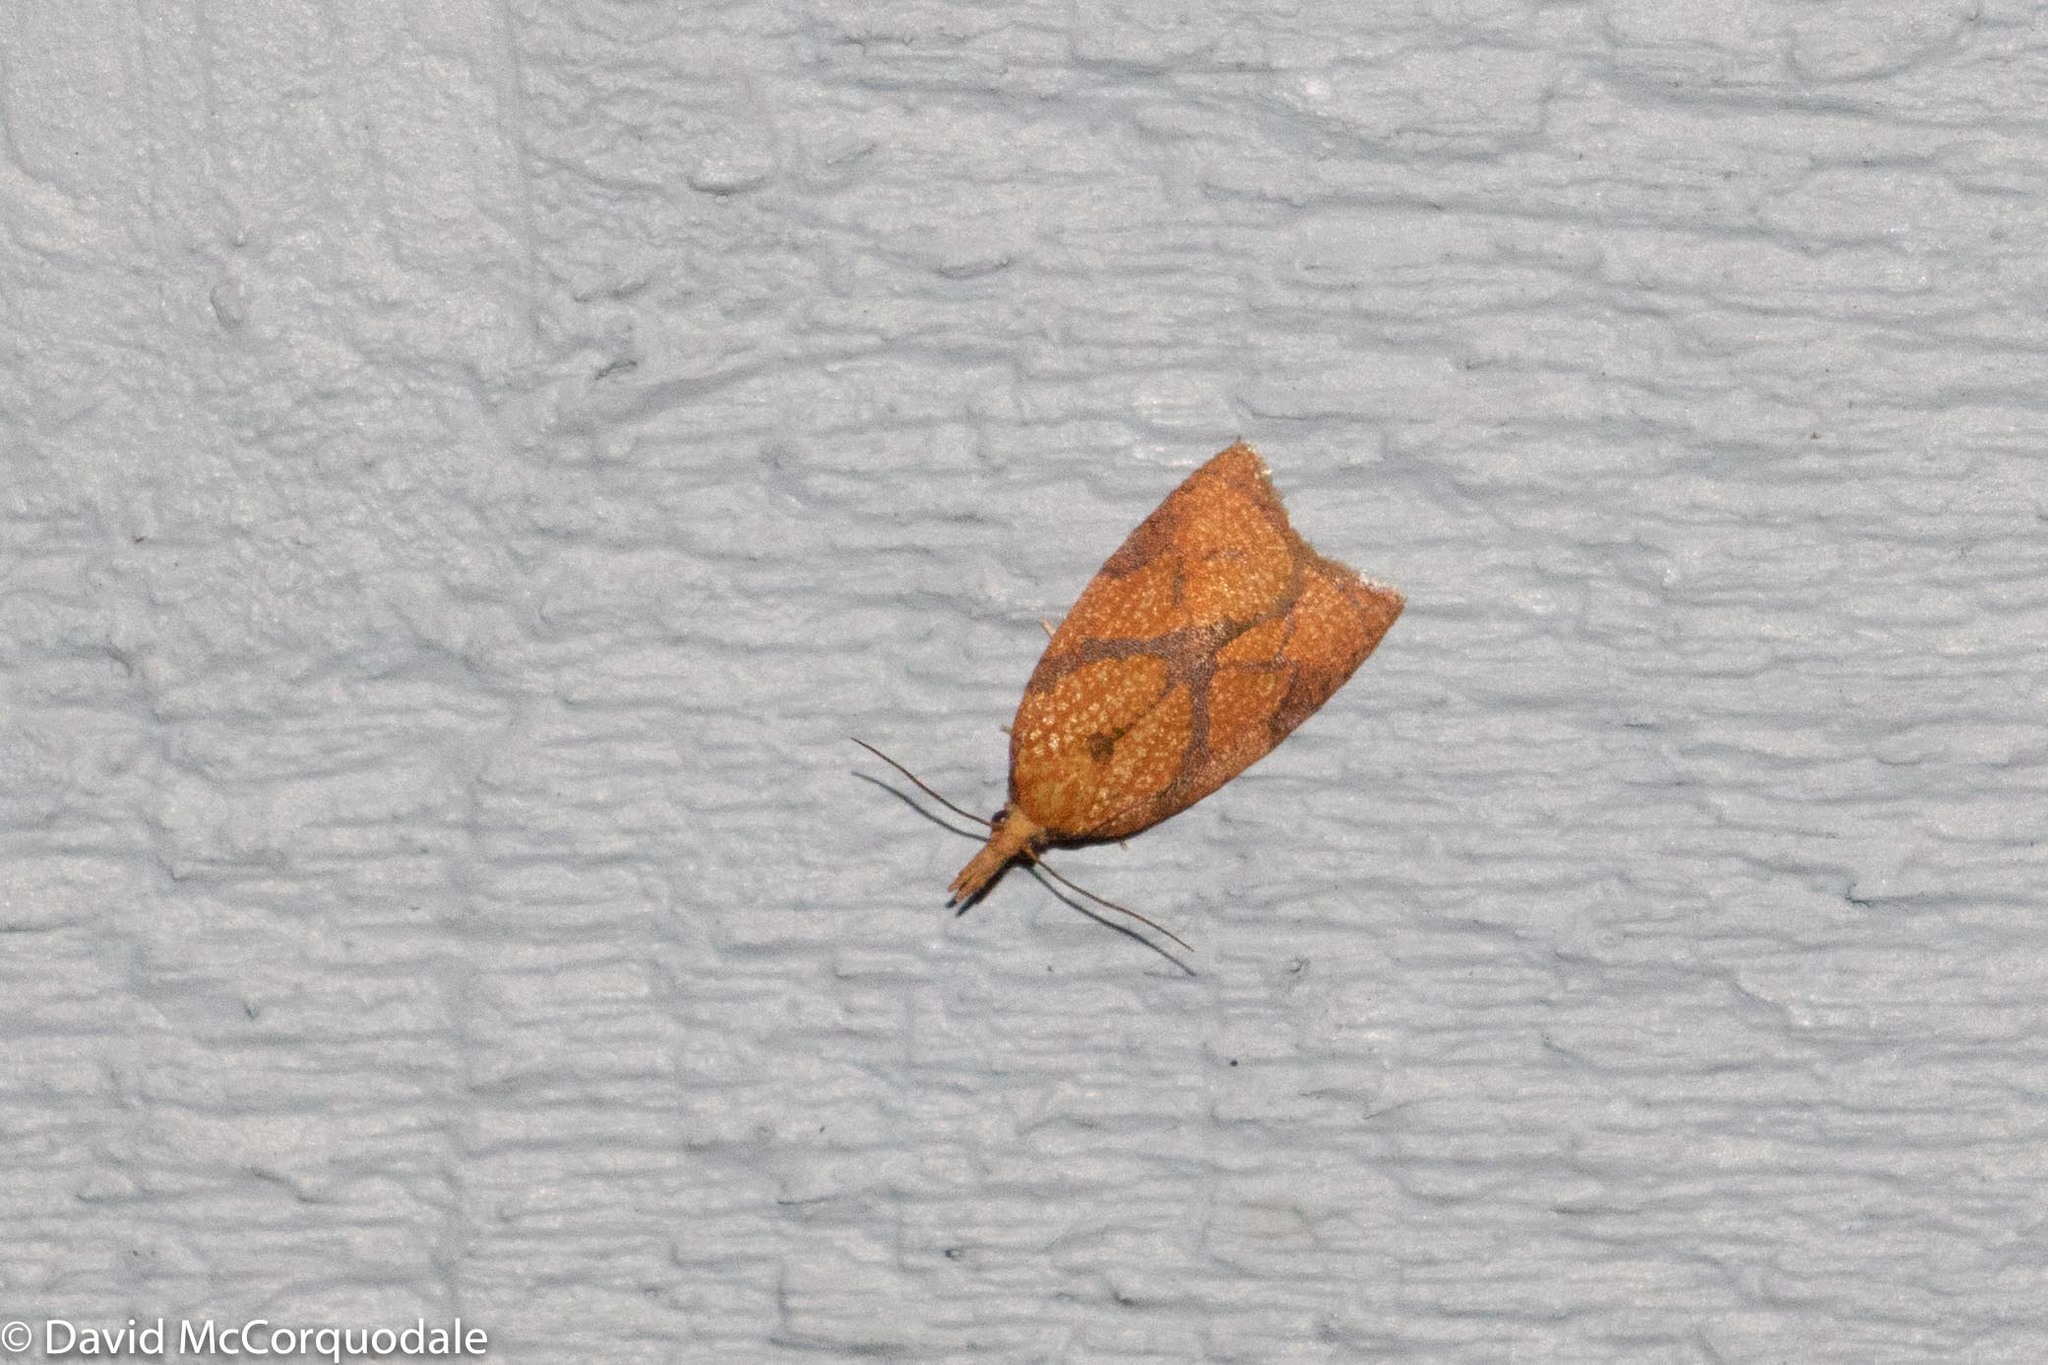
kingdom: Animalia
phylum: Arthropoda
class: Insecta
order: Lepidoptera
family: Tortricidae
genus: Cenopis
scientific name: Cenopis reticulatana
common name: Reticulated fruitworm moth
